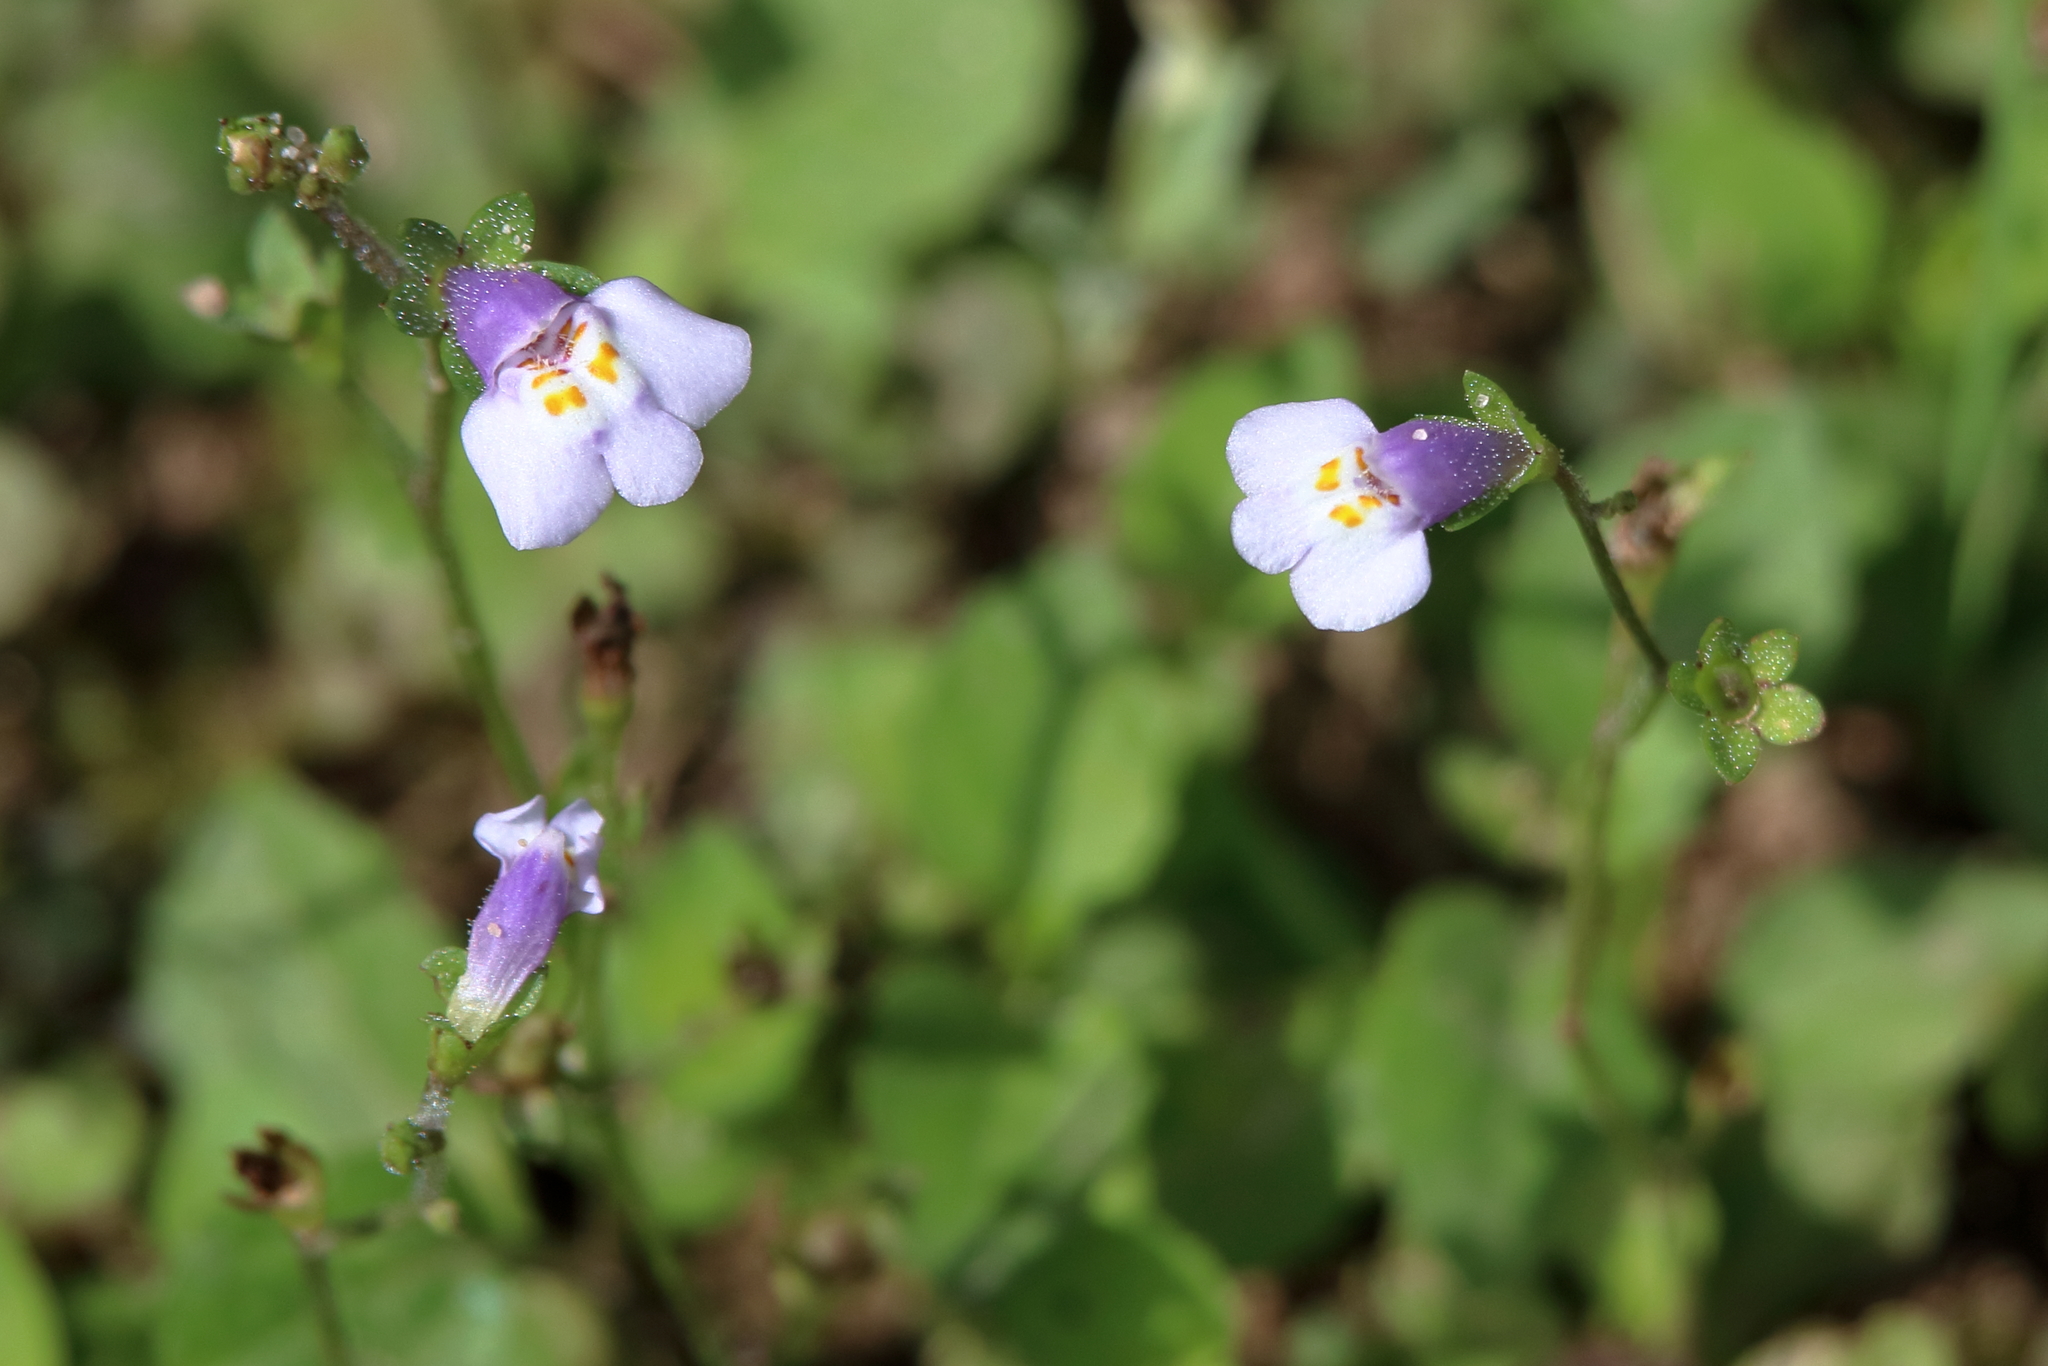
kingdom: Plantae
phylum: Tracheophyta
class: Magnoliopsida
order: Lamiales
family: Mazaceae
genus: Mazus
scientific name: Mazus pumilus
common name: Japanese mazus
